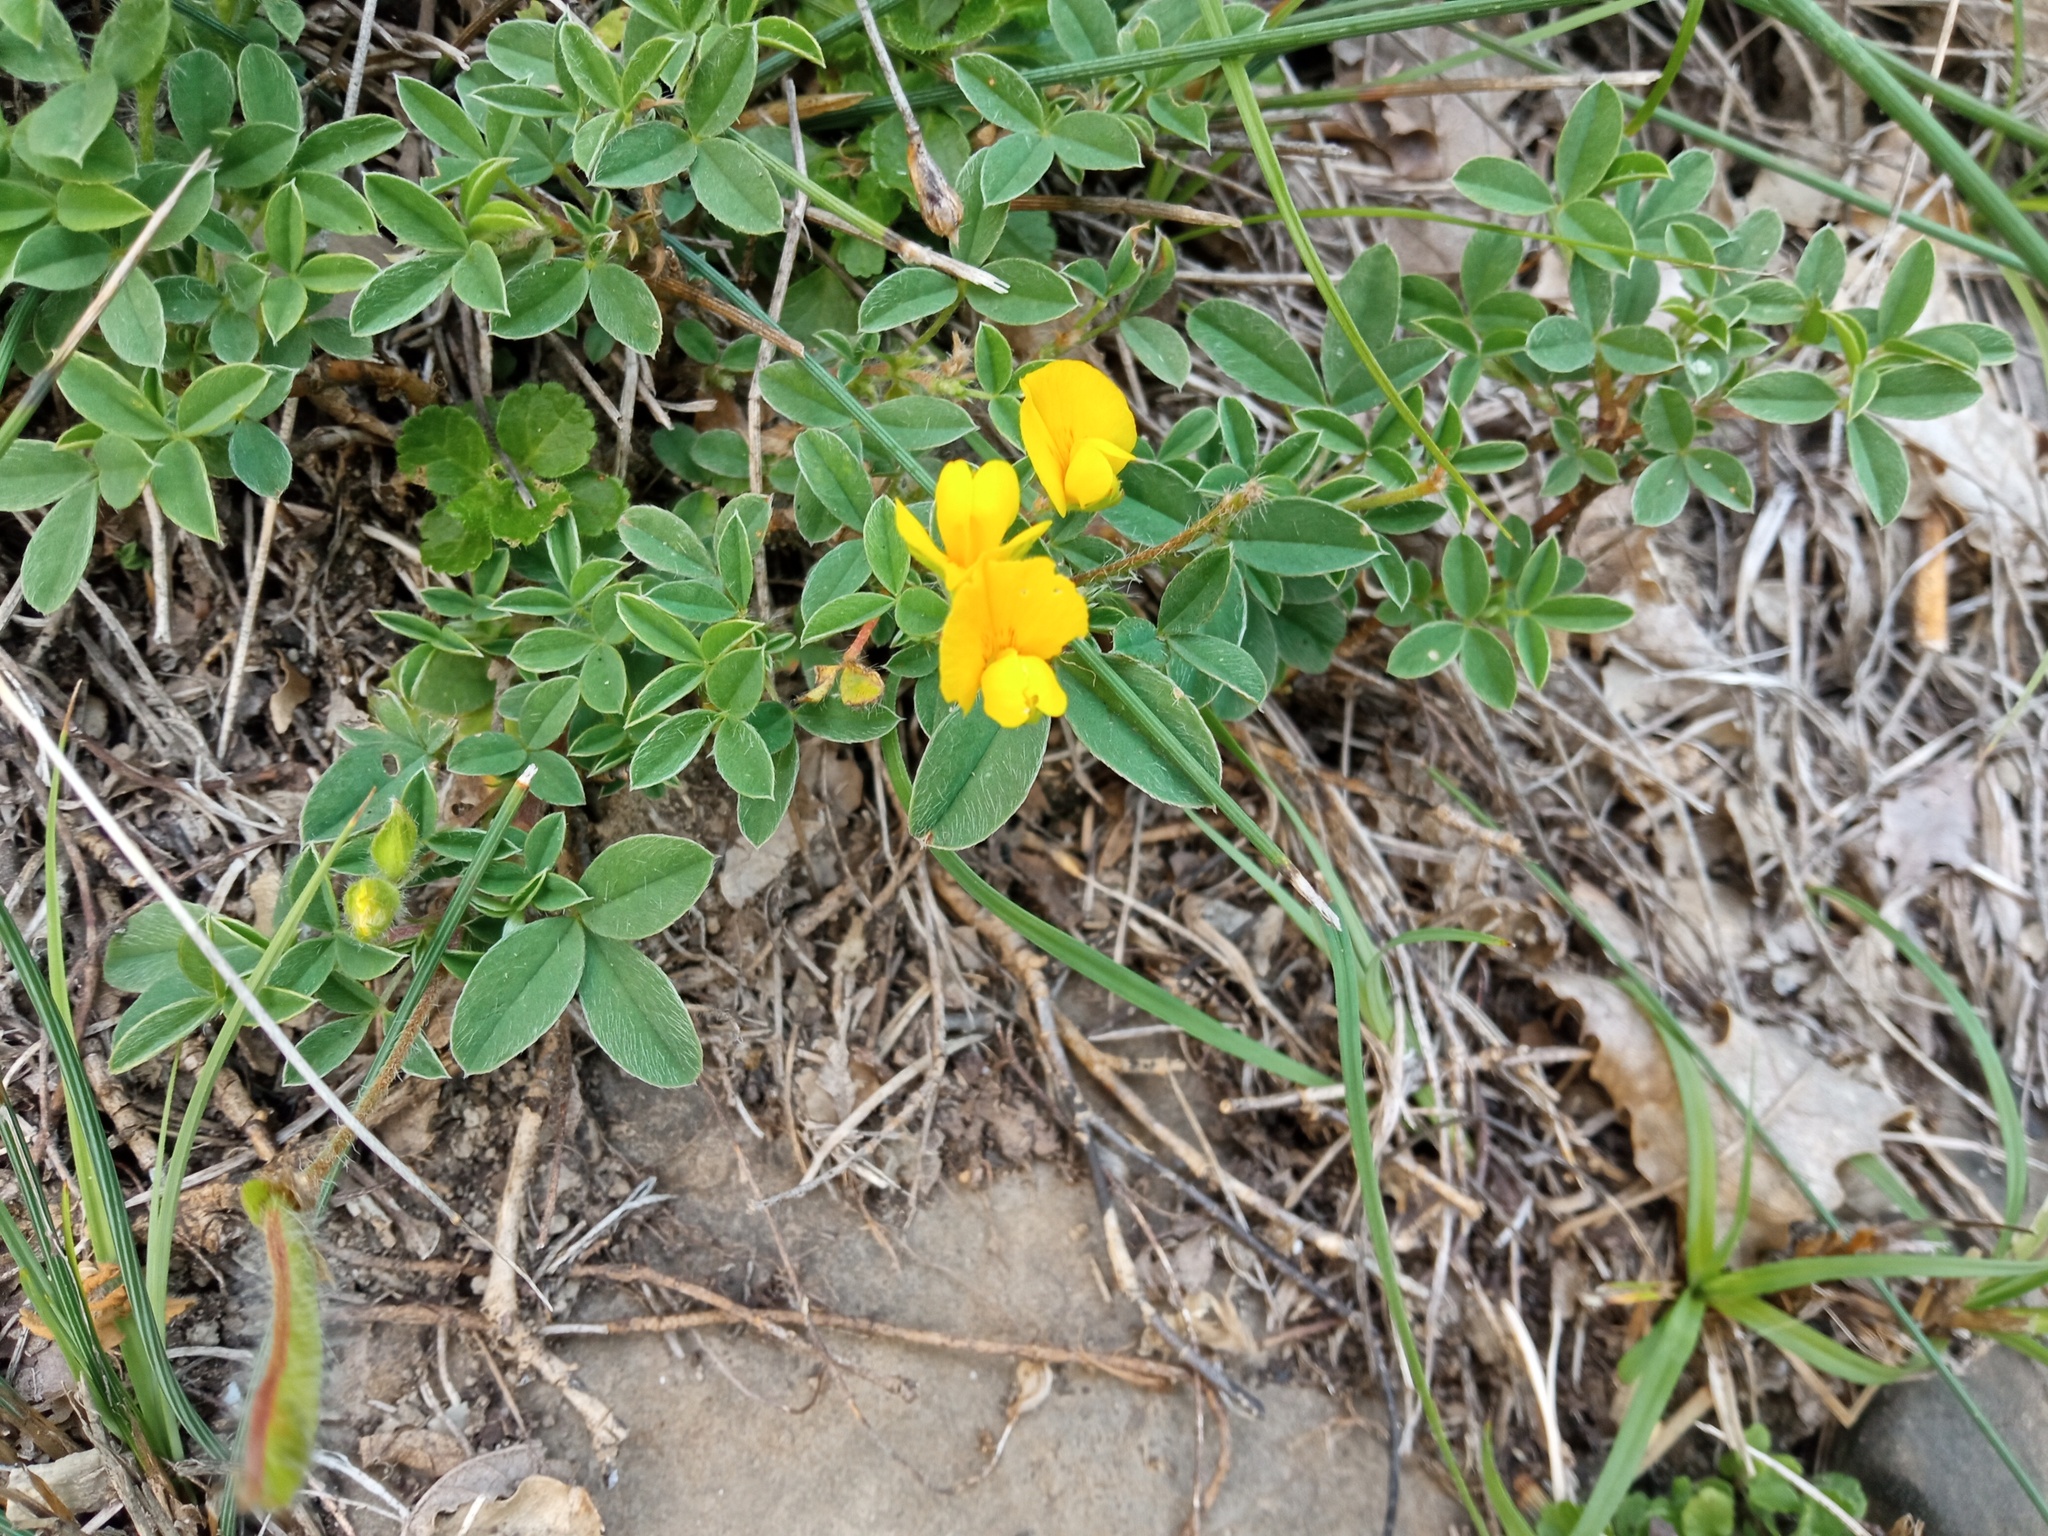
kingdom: Plantae
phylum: Tracheophyta
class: Magnoliopsida
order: Fabales
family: Fabaceae
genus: Argyrolobium
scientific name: Argyrolobium zanonii
